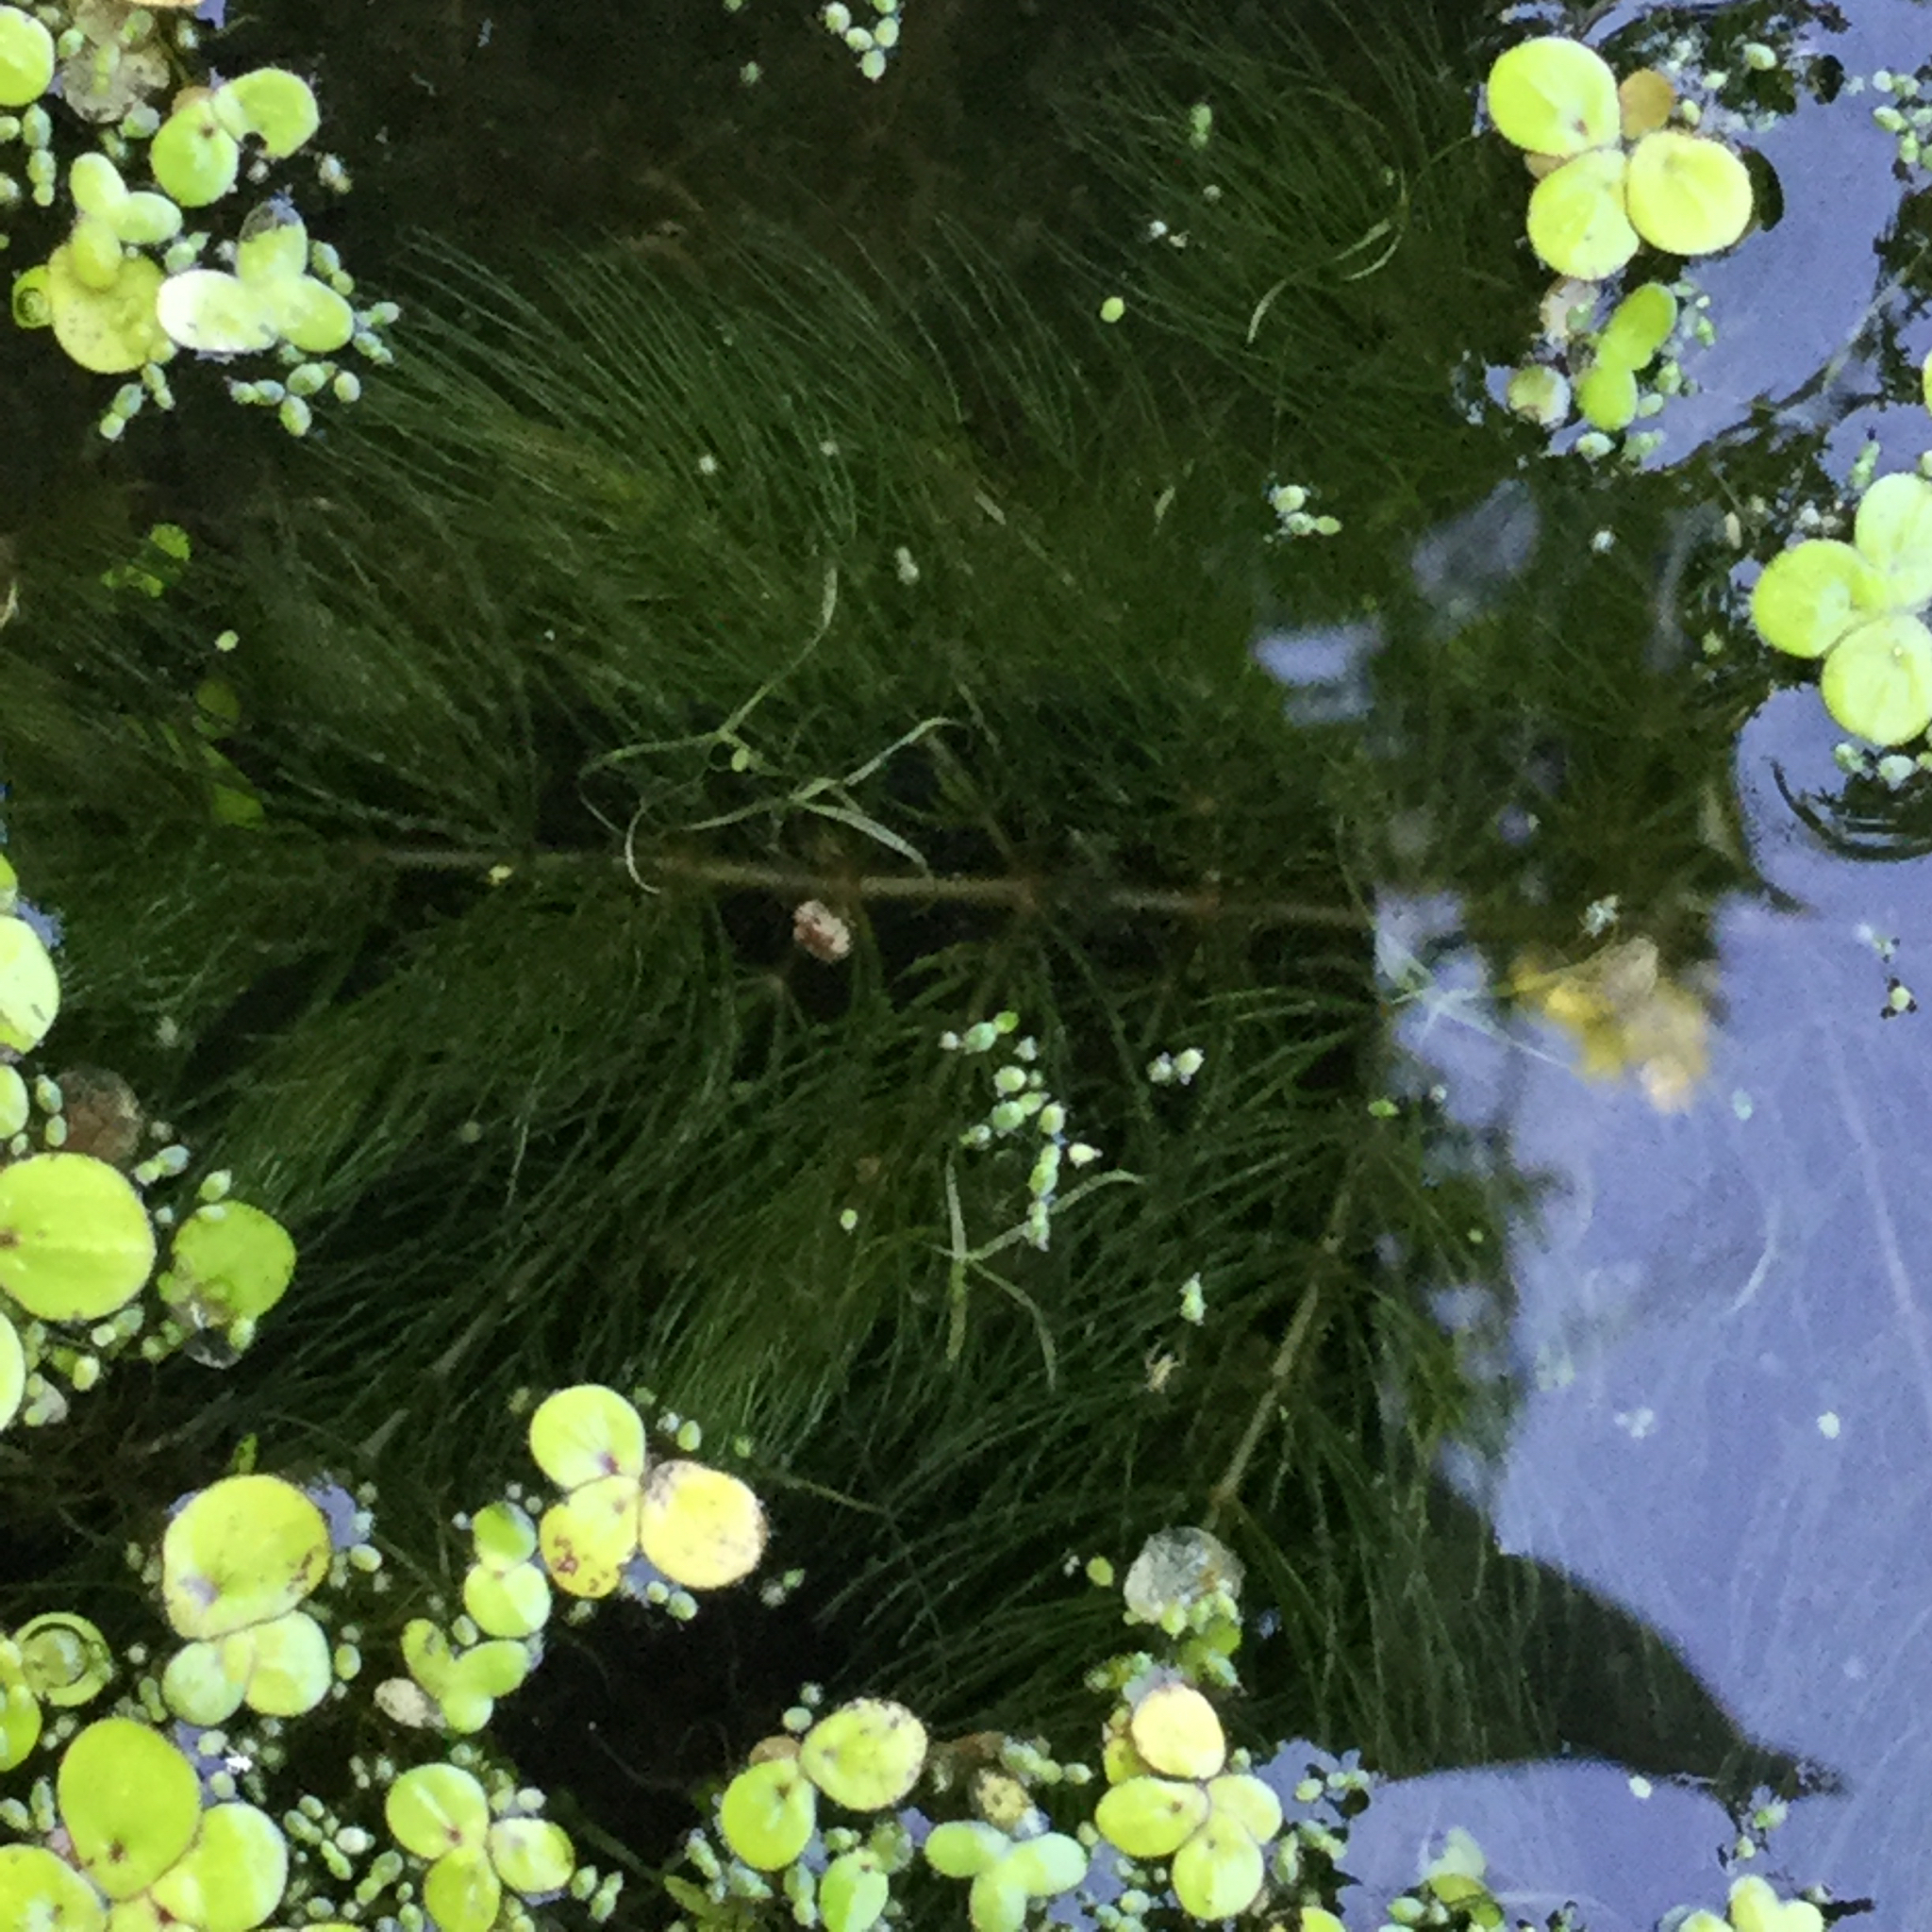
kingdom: Plantae
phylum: Tracheophyta
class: Liliopsida
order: Alismatales
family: Araceae
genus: Wolffiella
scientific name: Wolffiella gladiata
